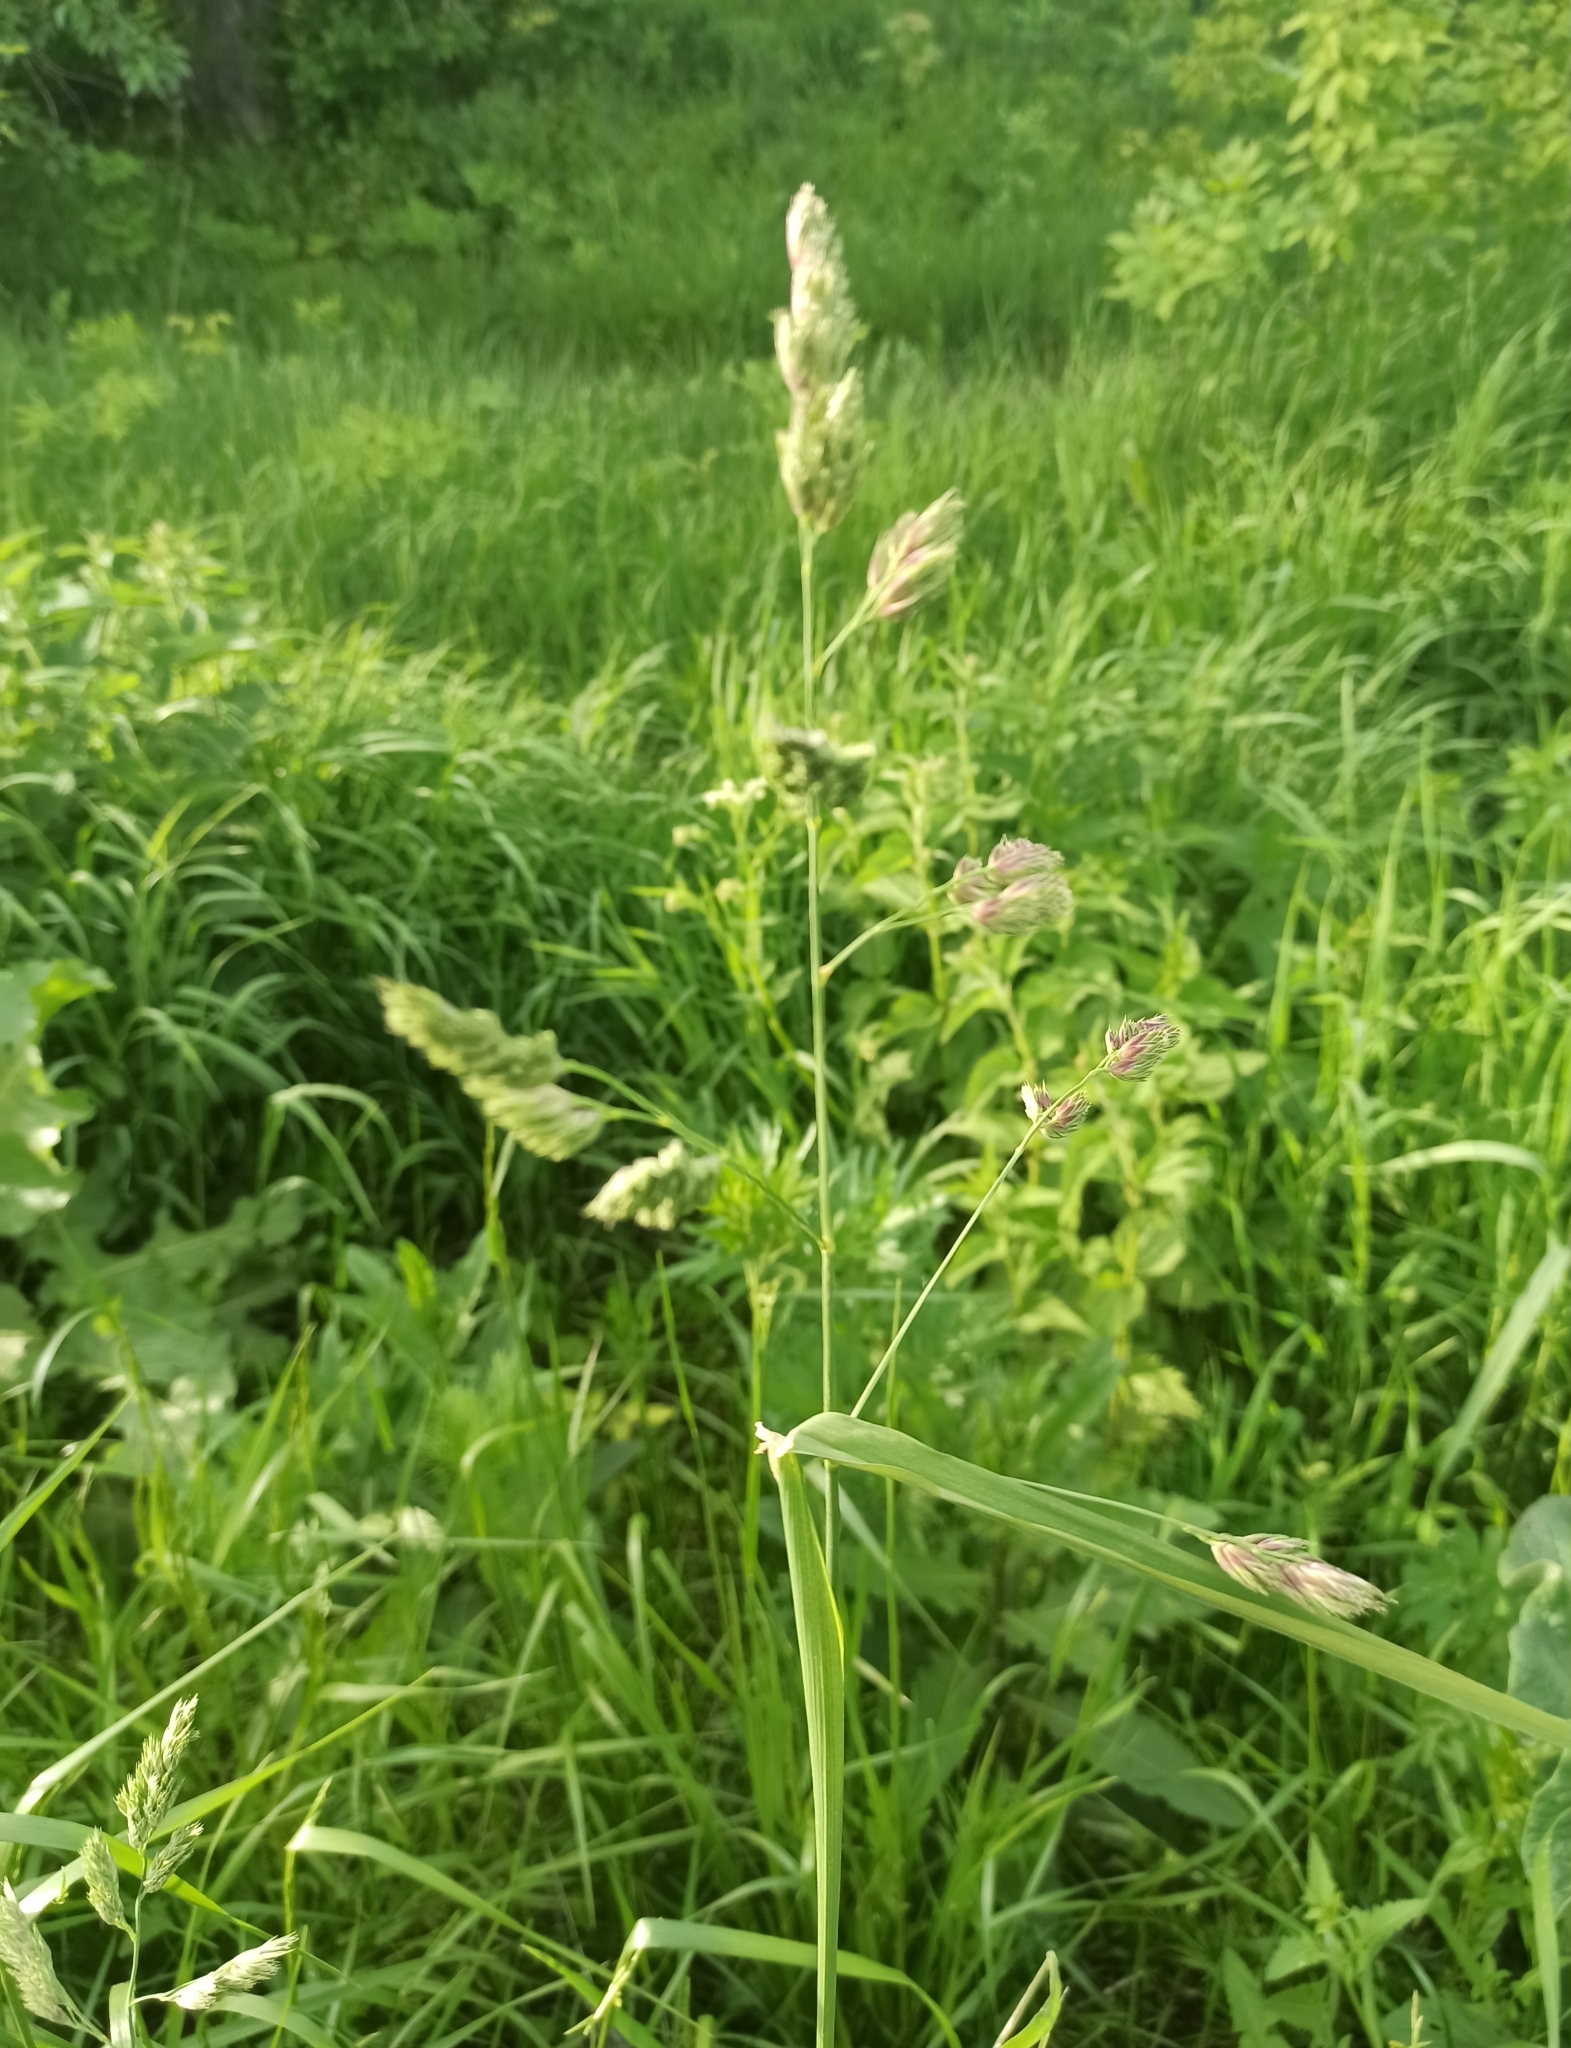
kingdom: Plantae
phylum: Tracheophyta
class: Liliopsida
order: Poales
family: Poaceae
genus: Dactylis
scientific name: Dactylis glomerata
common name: Orchardgrass
